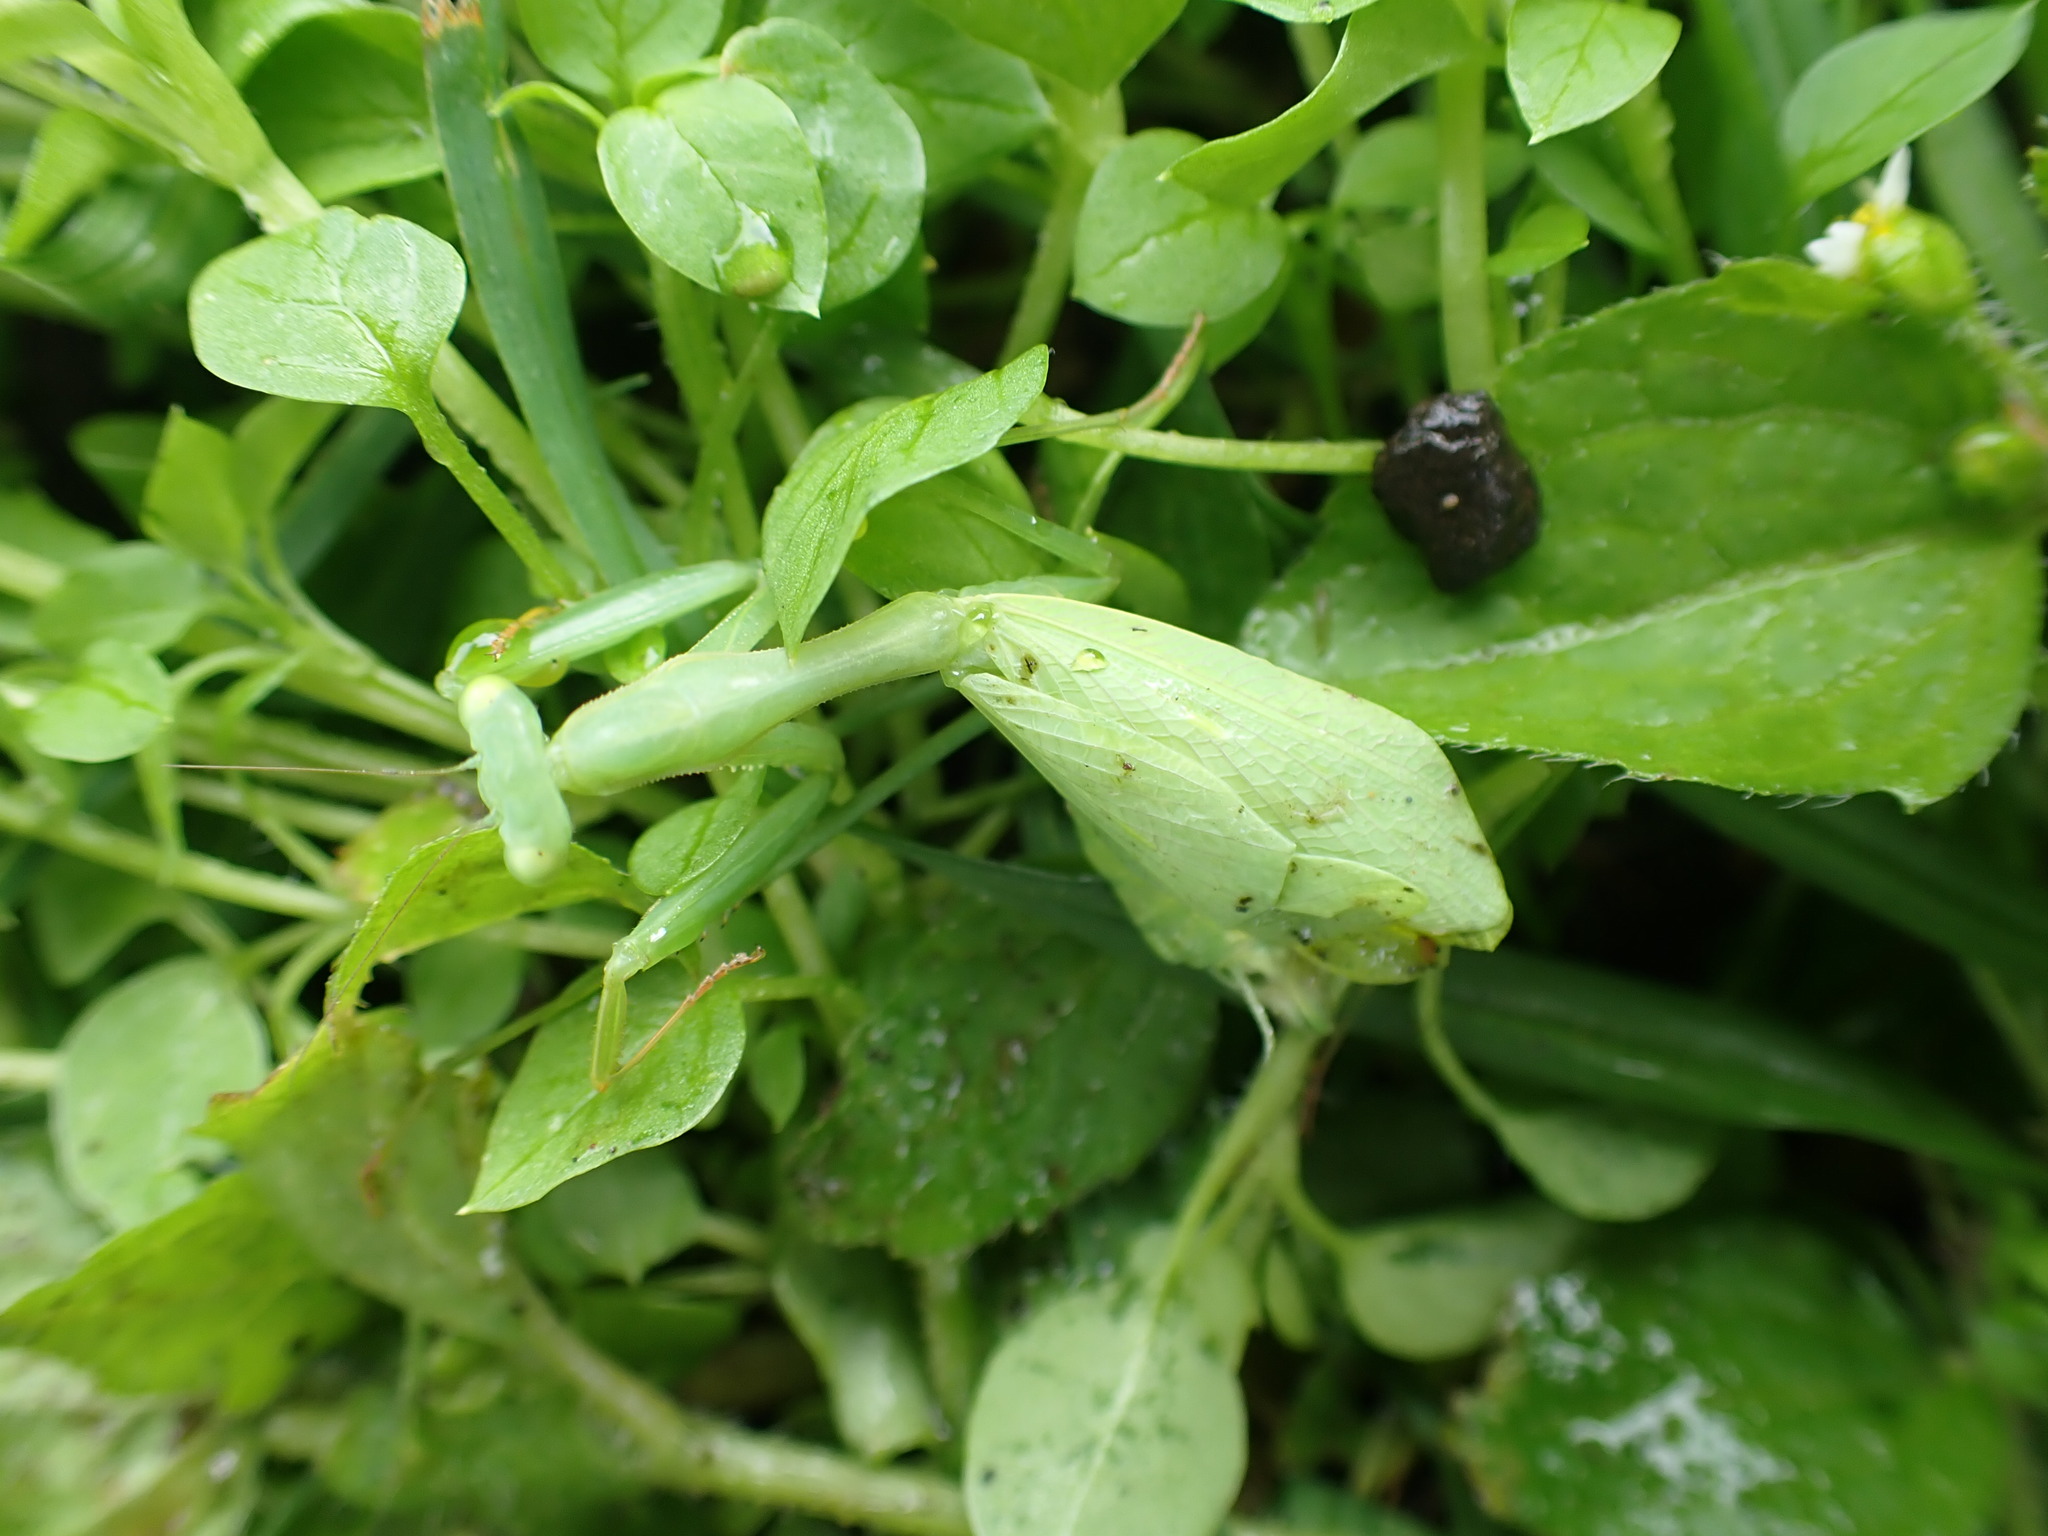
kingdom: Animalia
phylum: Arthropoda
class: Insecta
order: Mantodea
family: Miomantidae
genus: Miomantis
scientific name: Miomantis caffra
